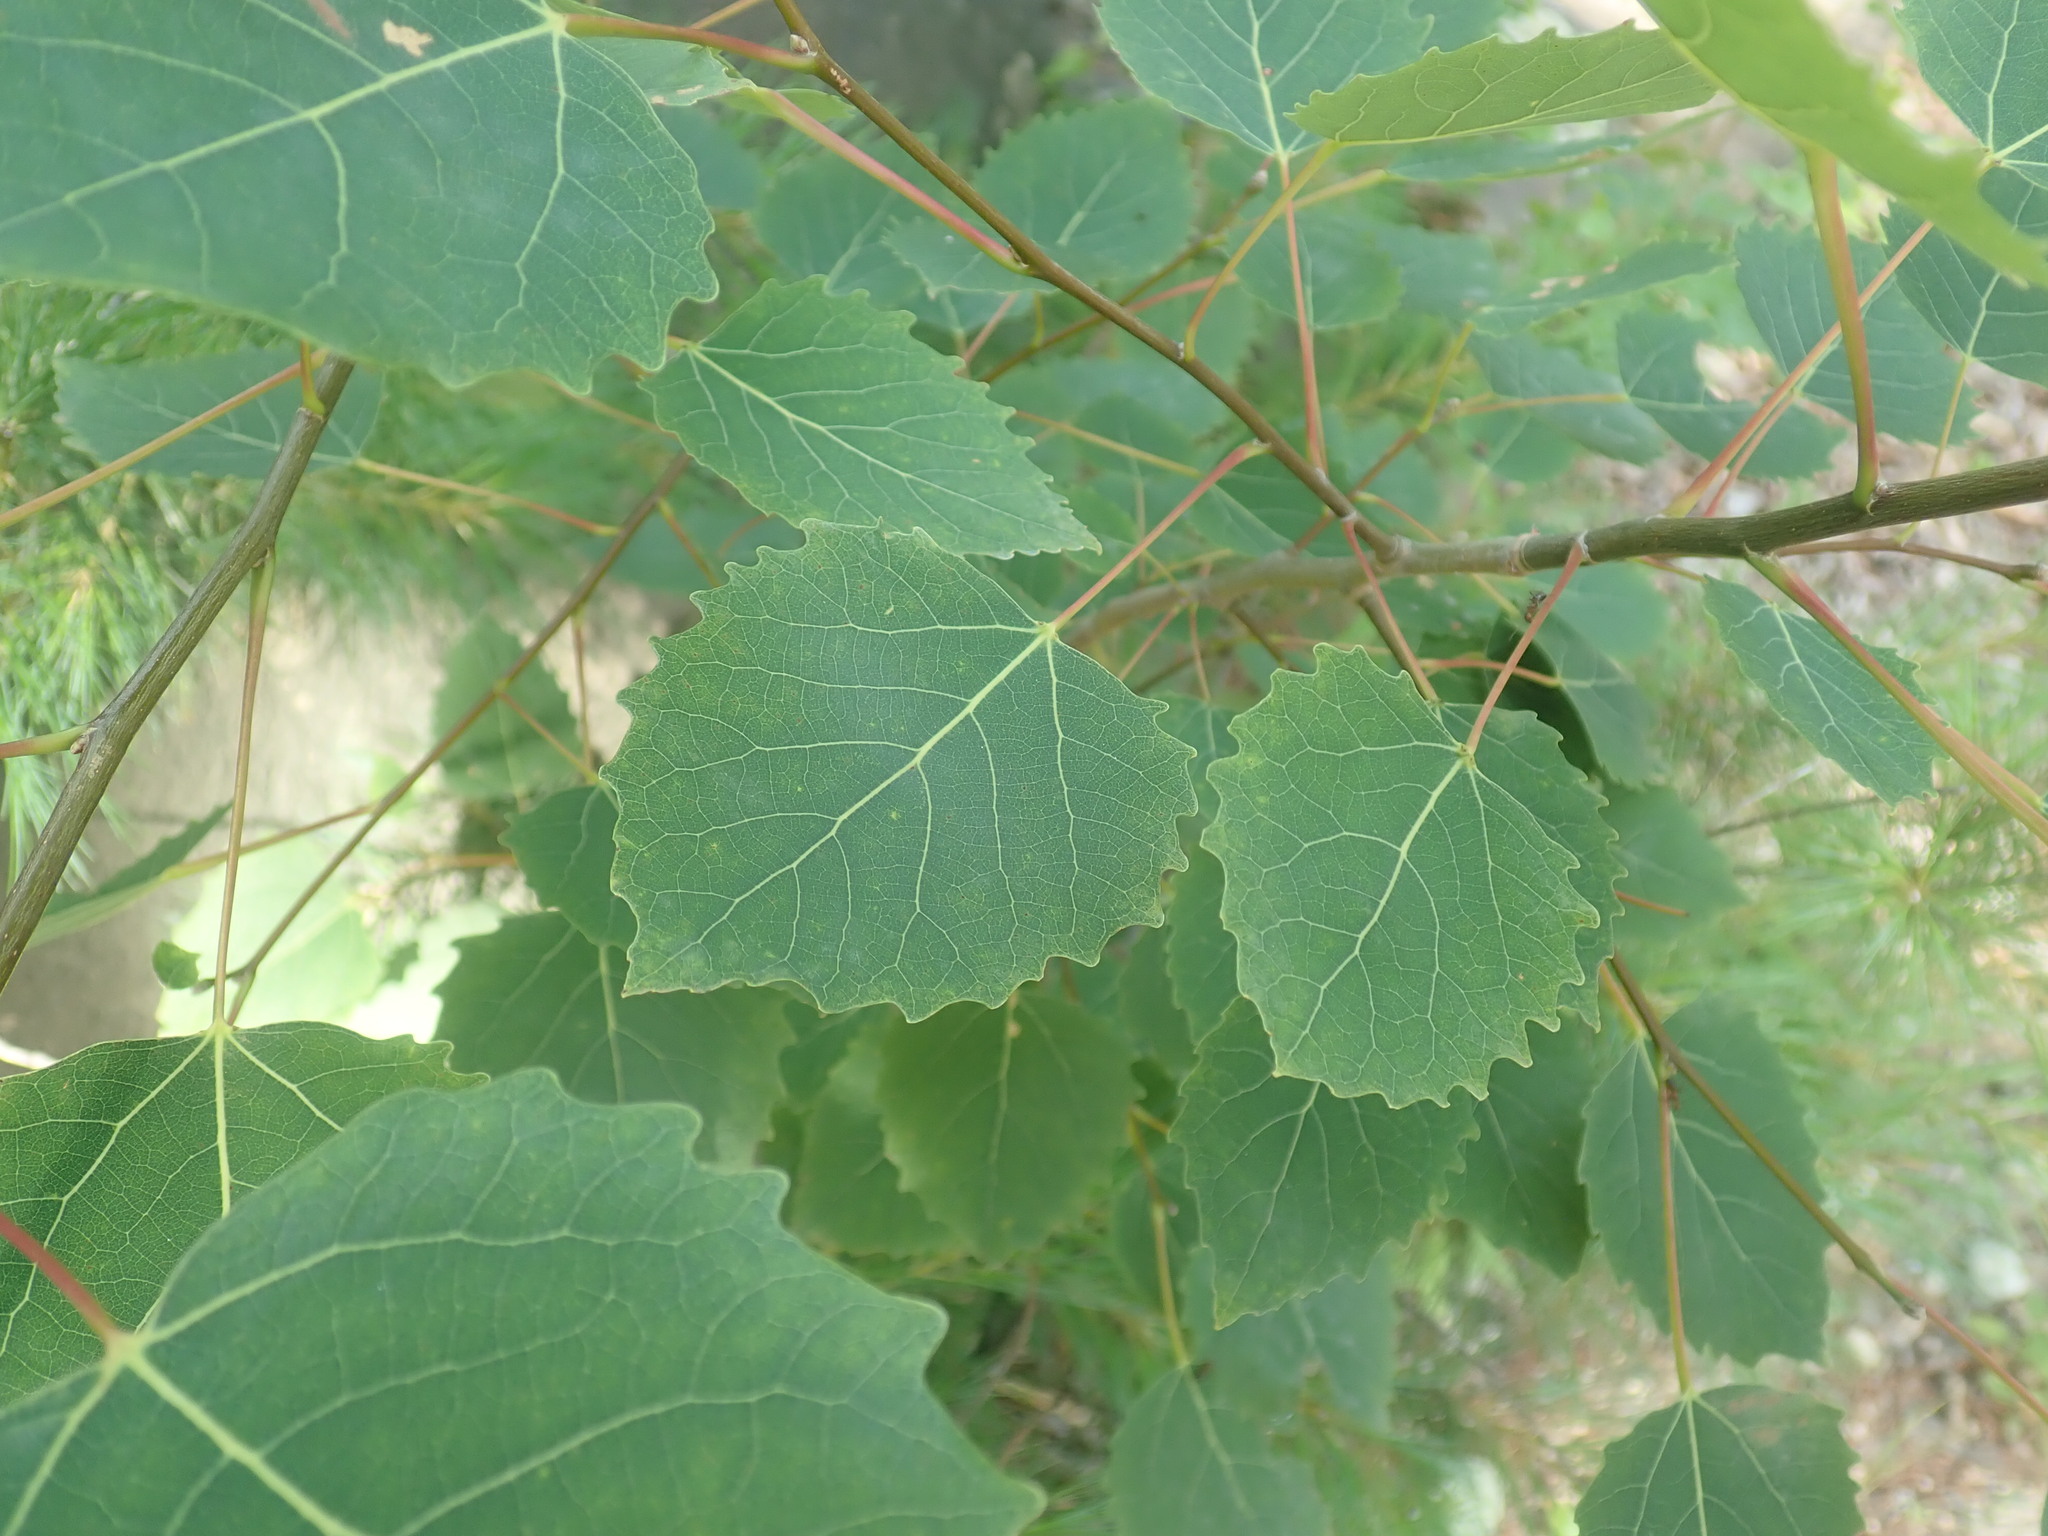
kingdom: Plantae
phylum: Tracheophyta
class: Magnoliopsida
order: Malpighiales
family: Salicaceae
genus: Populus
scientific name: Populus grandidentata
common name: Bigtooth aspen
